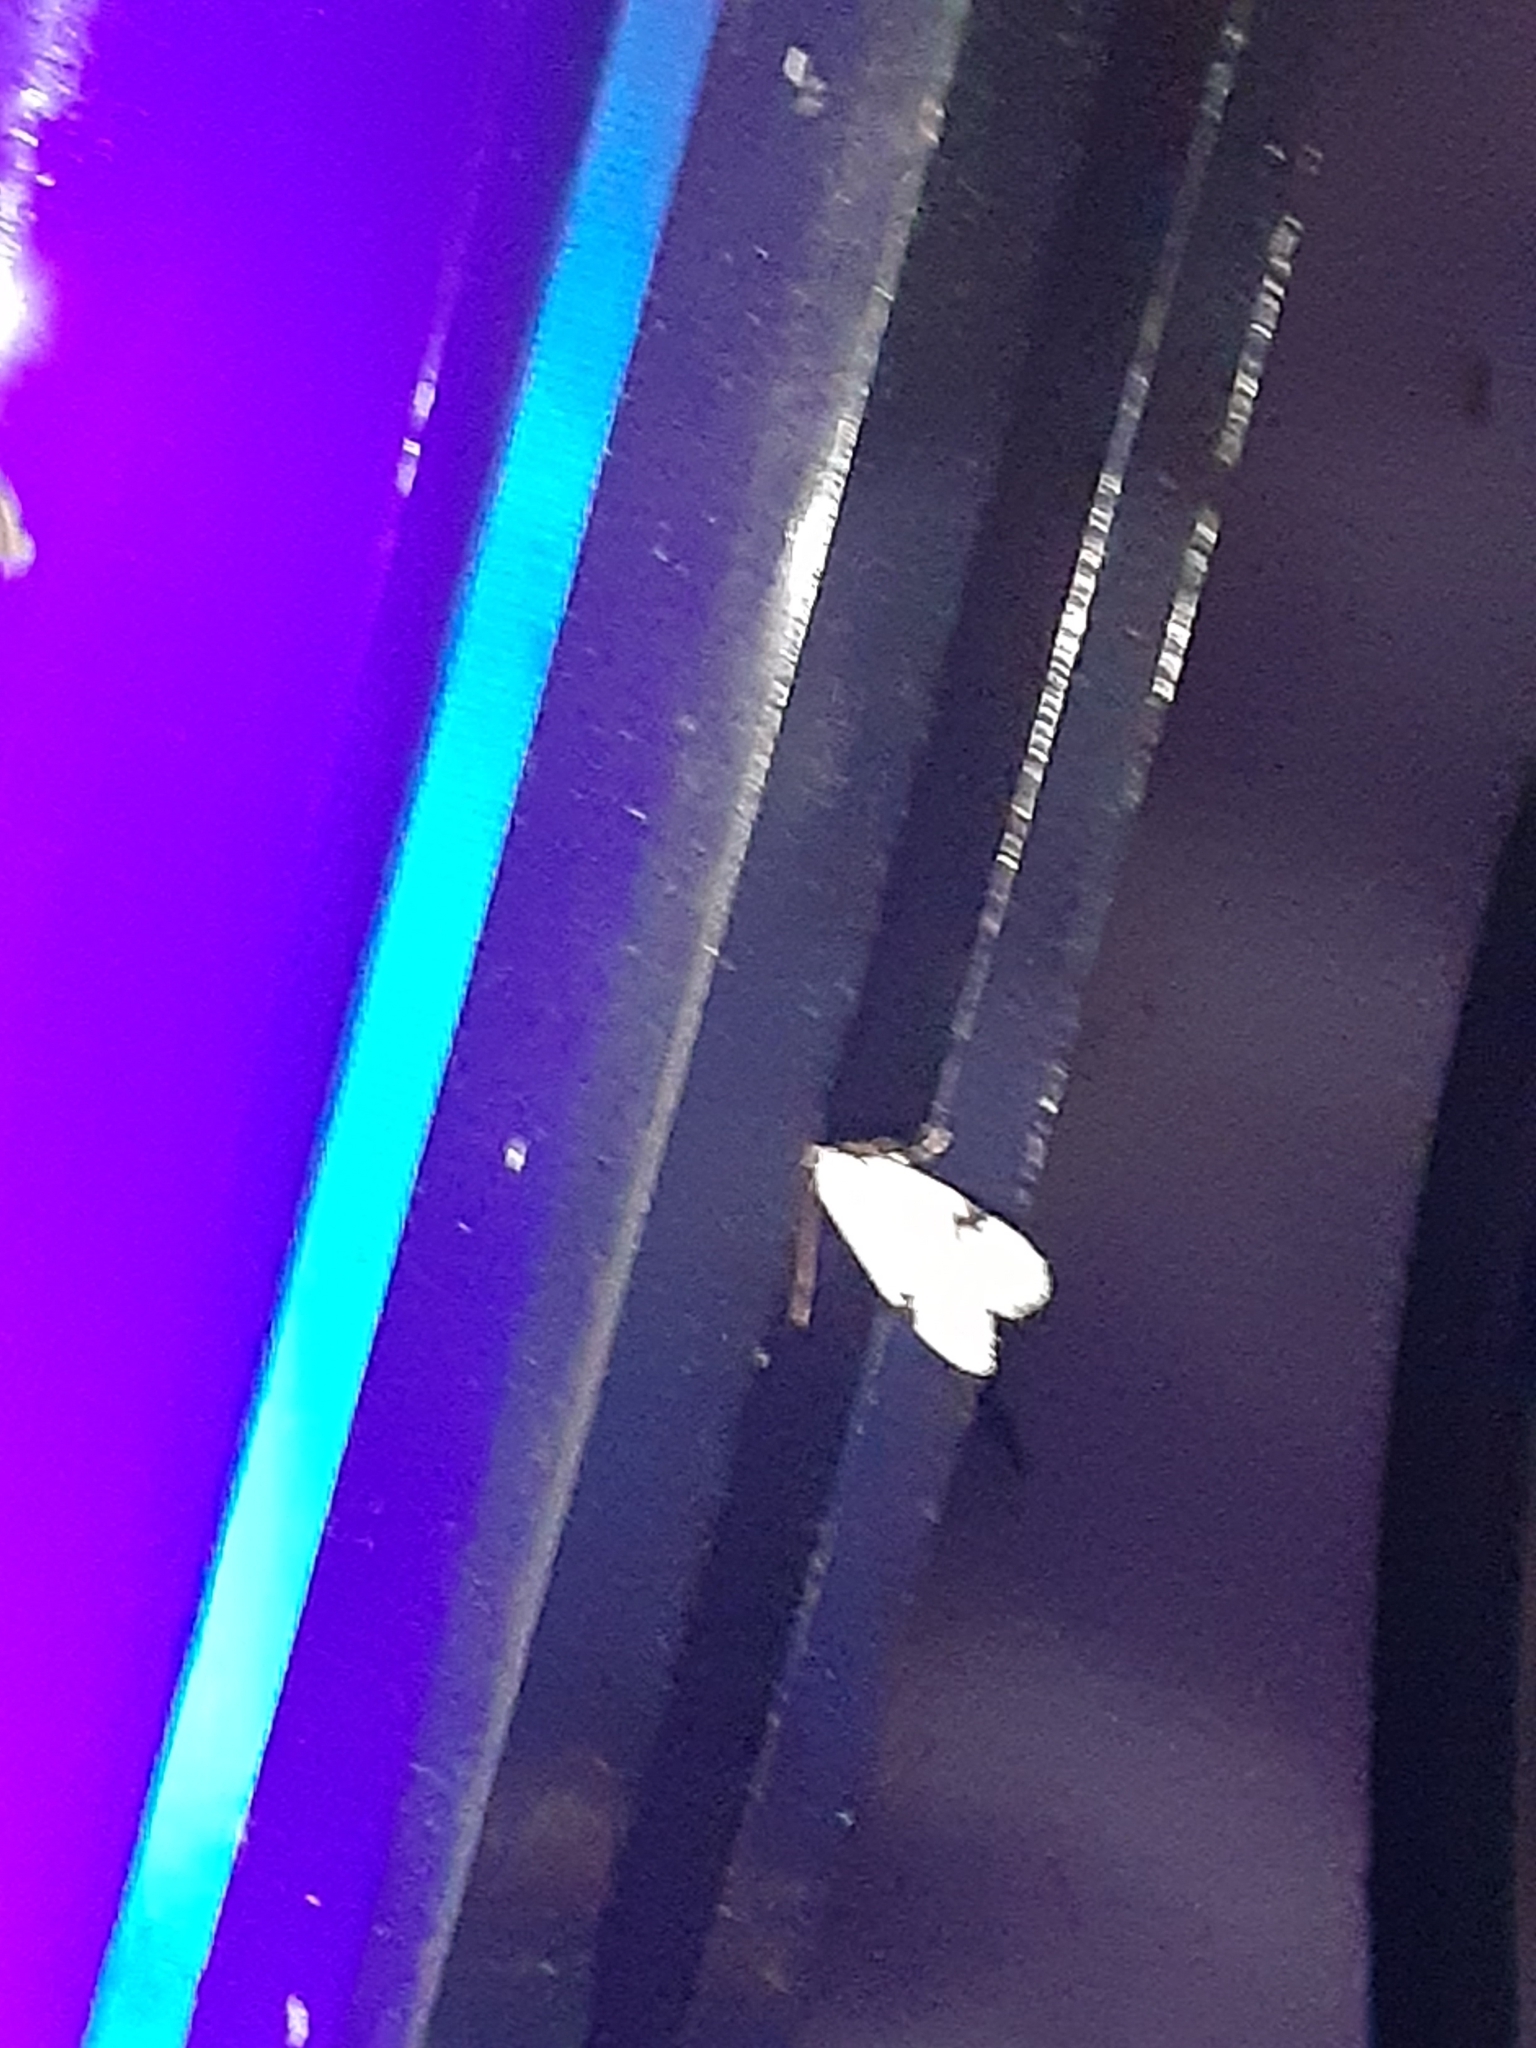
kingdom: Animalia
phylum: Arthropoda
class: Insecta
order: Lepidoptera
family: Oecophoridae
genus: Inga
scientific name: Inga sparsiciliella
